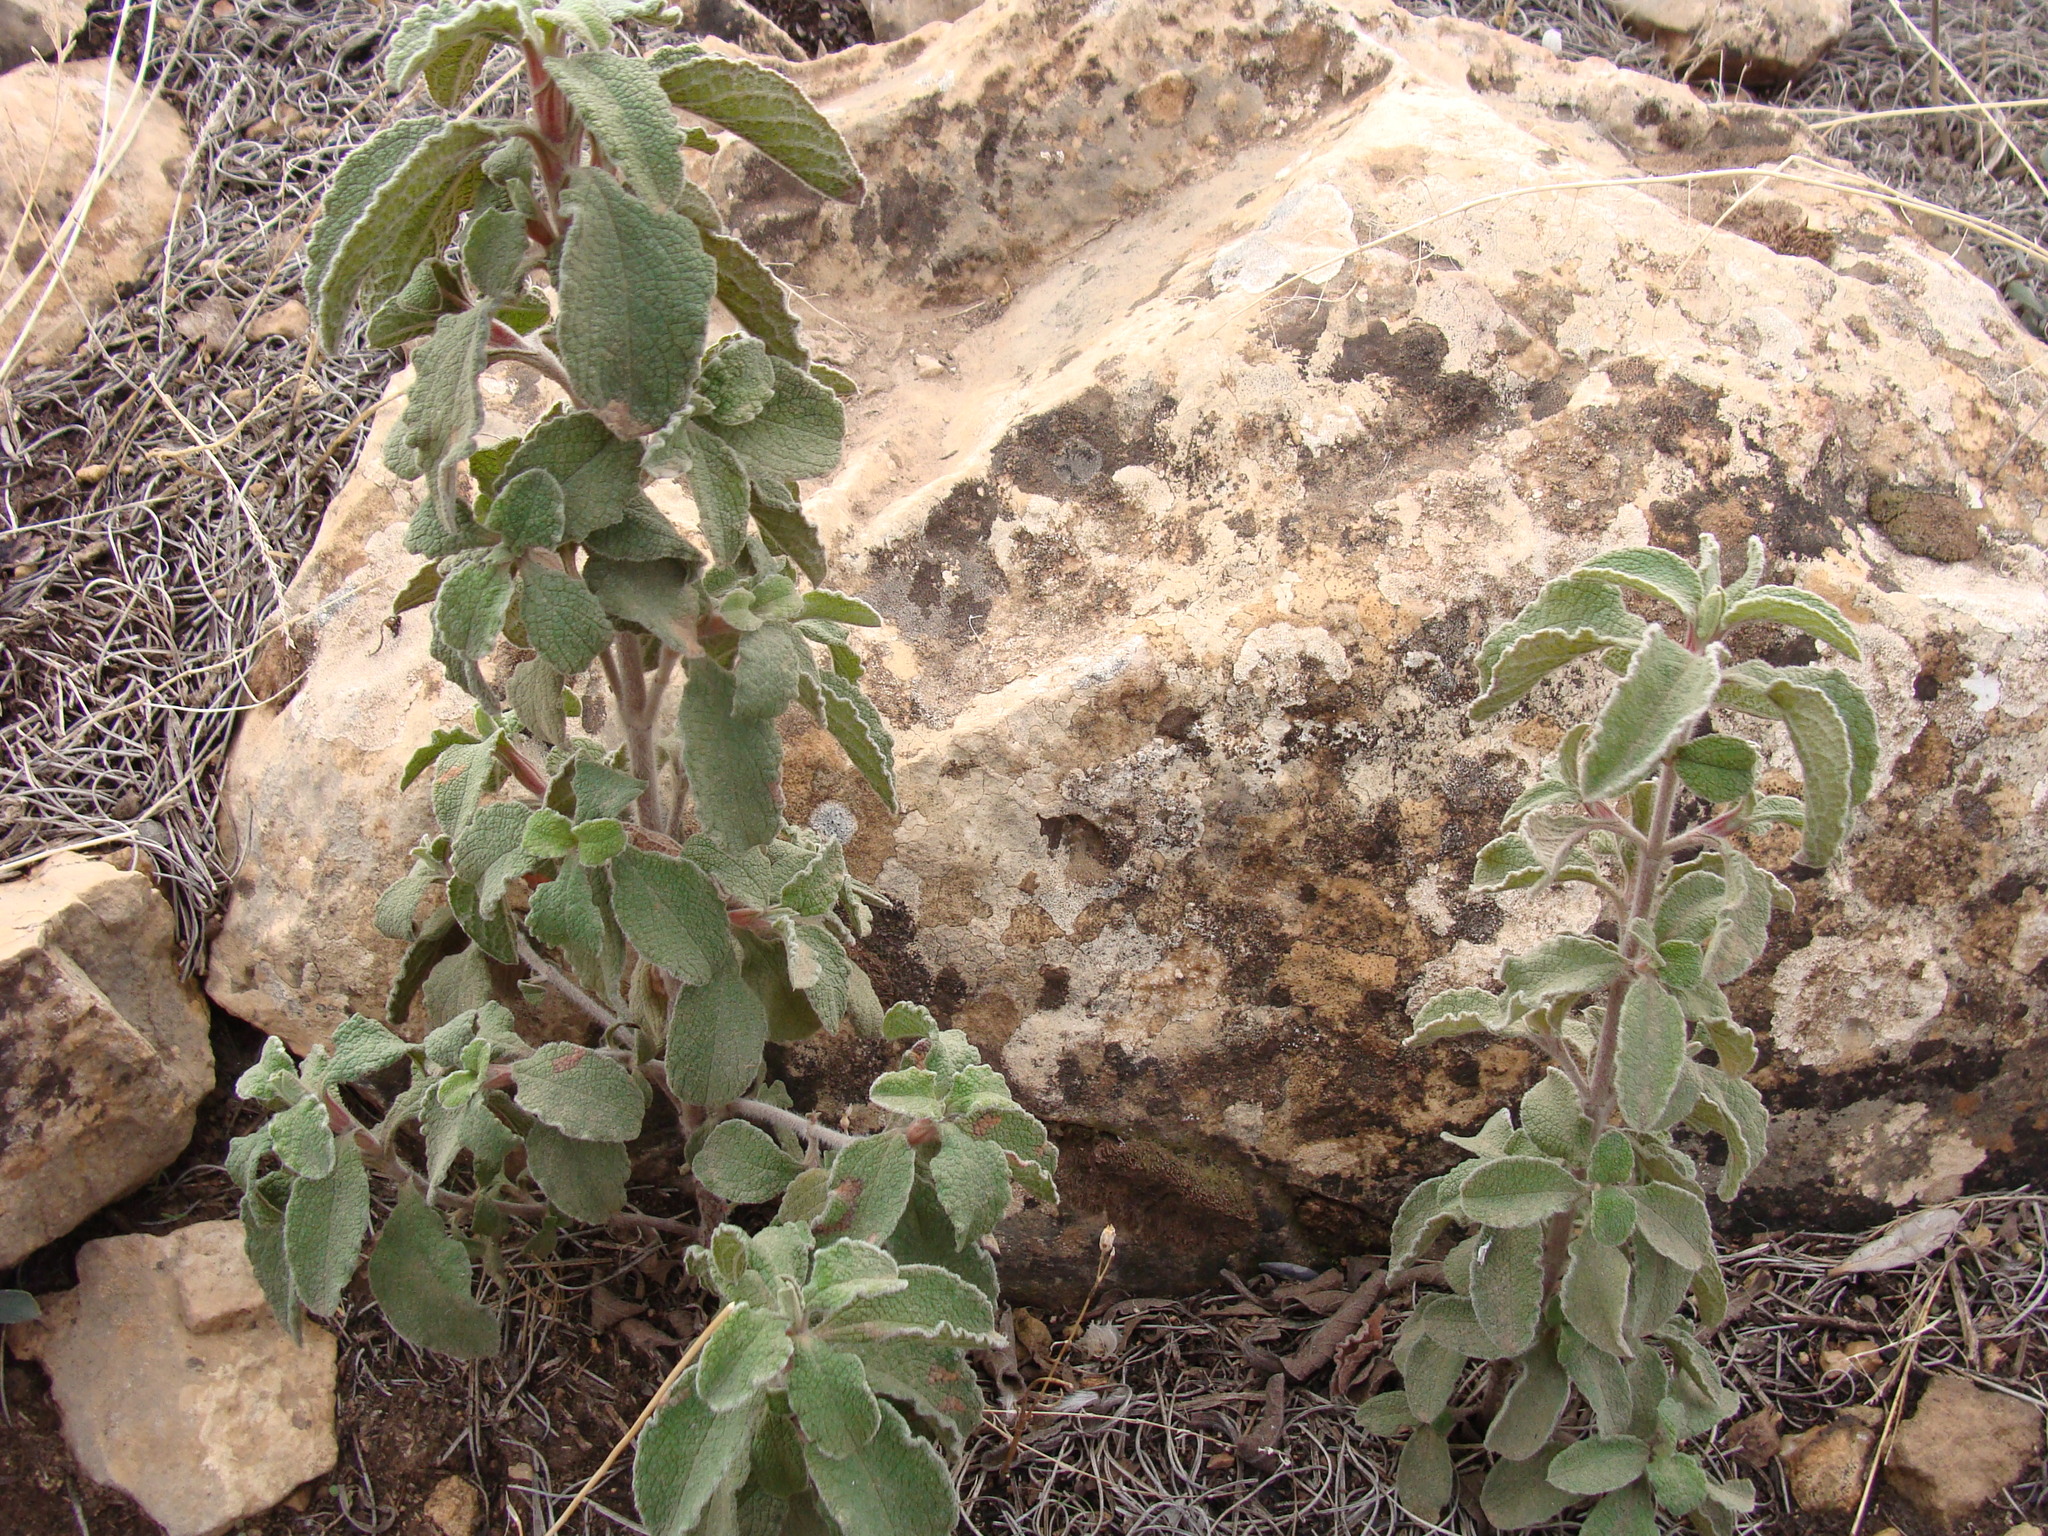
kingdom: Plantae
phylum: Tracheophyta
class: Magnoliopsida
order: Malvales
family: Cistaceae
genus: Cistus
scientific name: Cistus creticus
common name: Cretan rockrose
